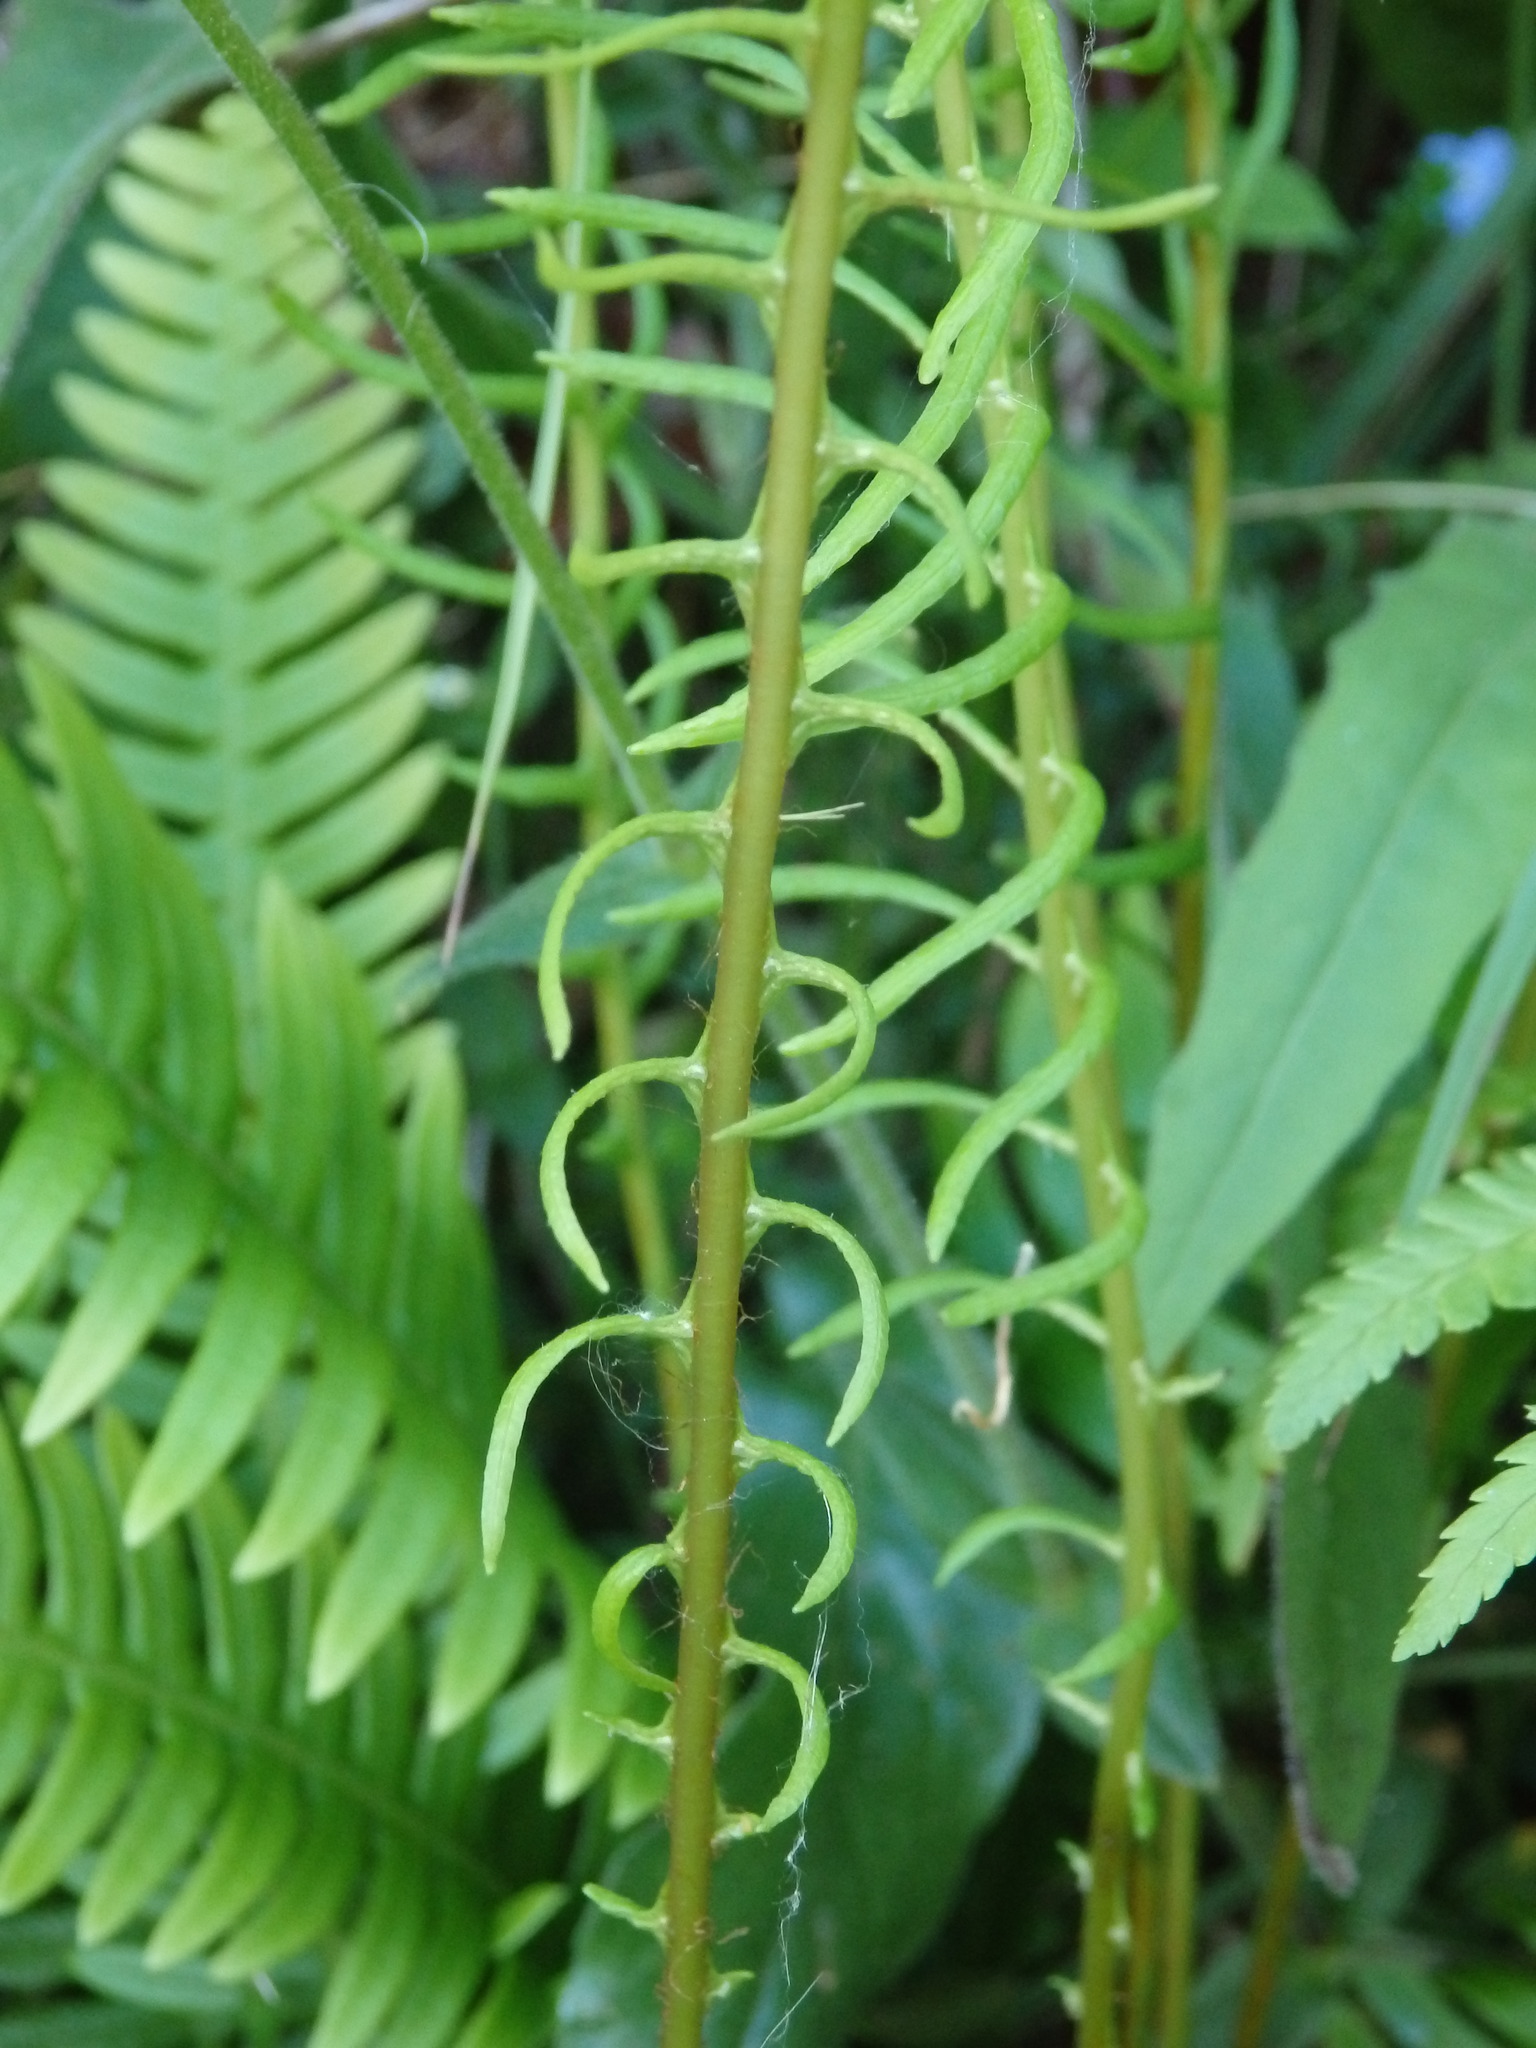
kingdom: Plantae
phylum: Tracheophyta
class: Polypodiopsida
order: Polypodiales
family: Blechnaceae
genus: Struthiopteris
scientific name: Struthiopteris spicant
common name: Deer fern
